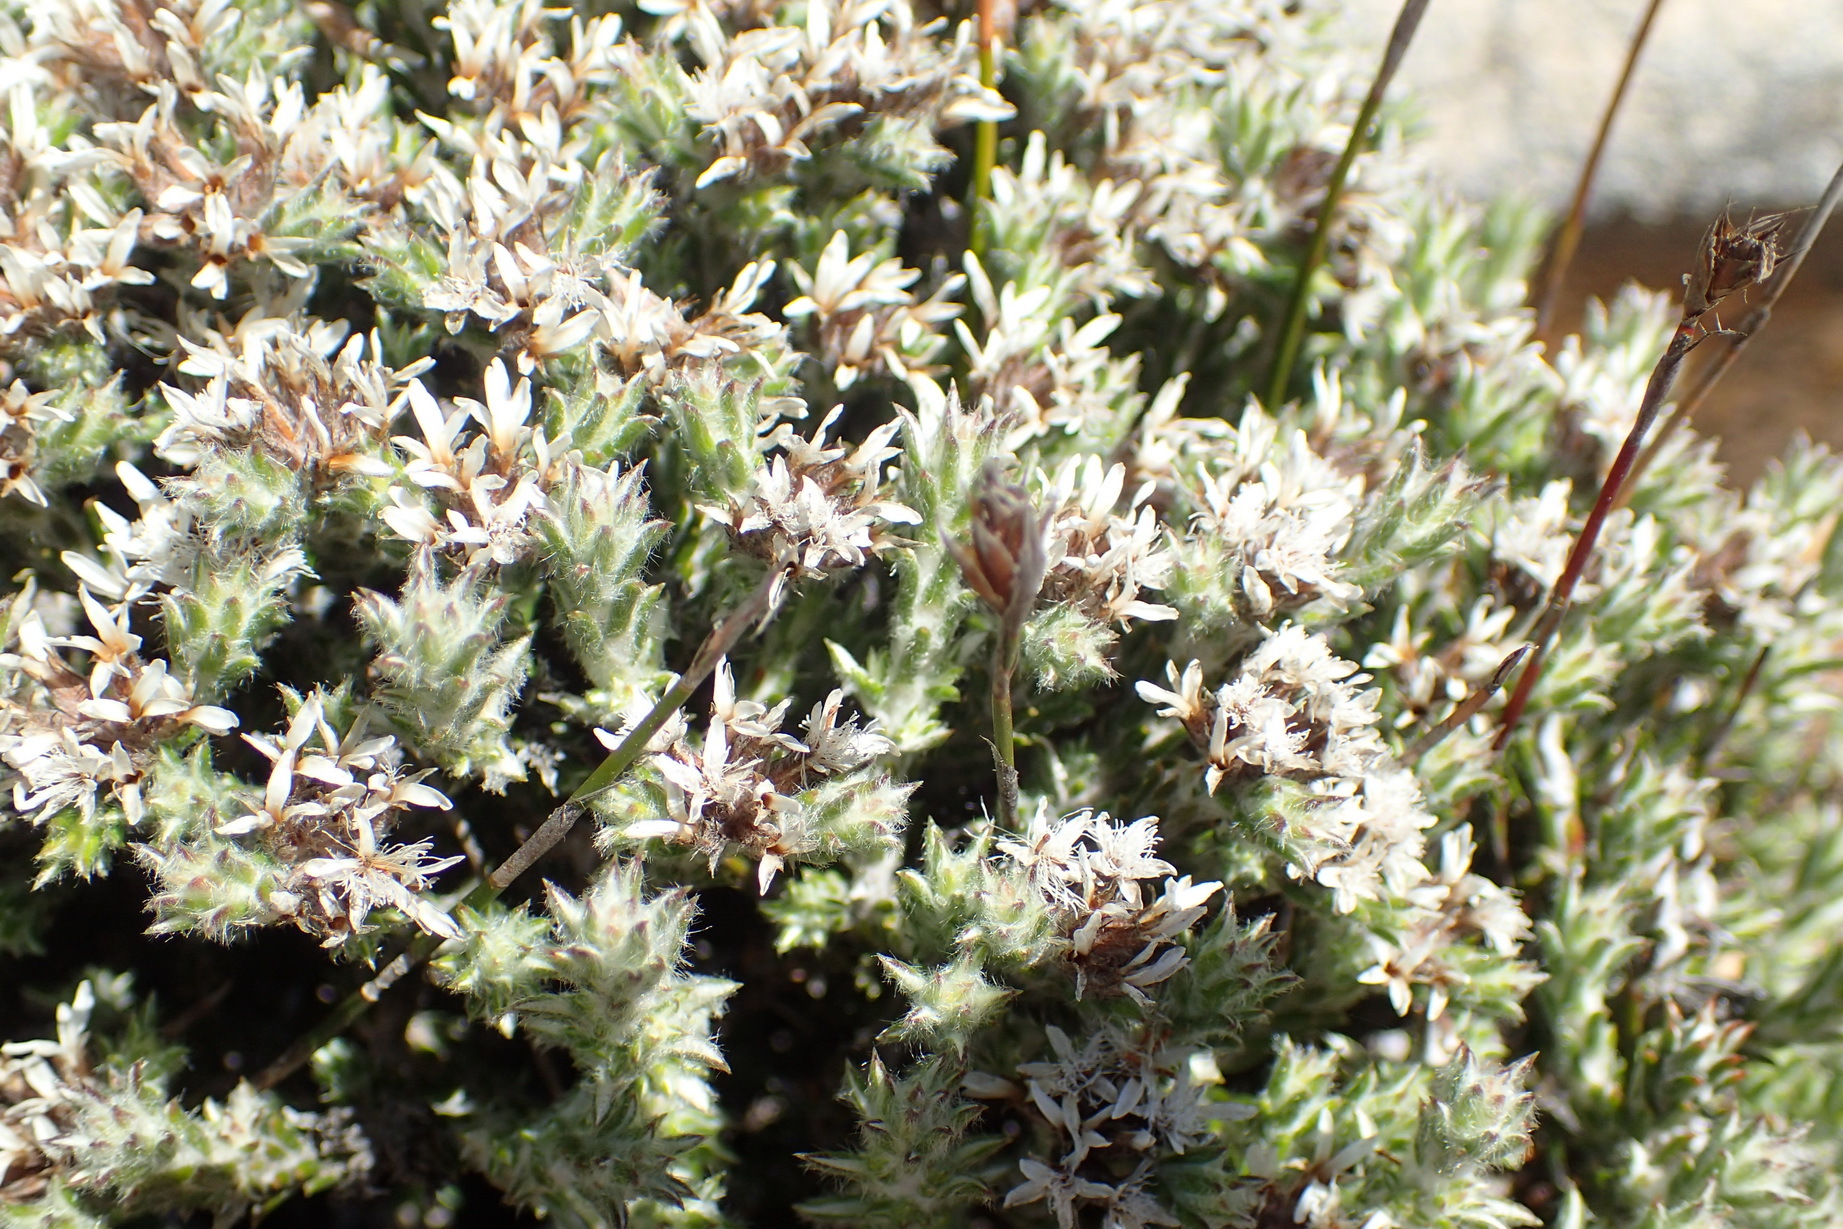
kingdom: Plantae
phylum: Tracheophyta
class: Magnoliopsida
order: Asterales
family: Asteraceae
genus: Metalasia
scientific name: Metalasia strictifolia
